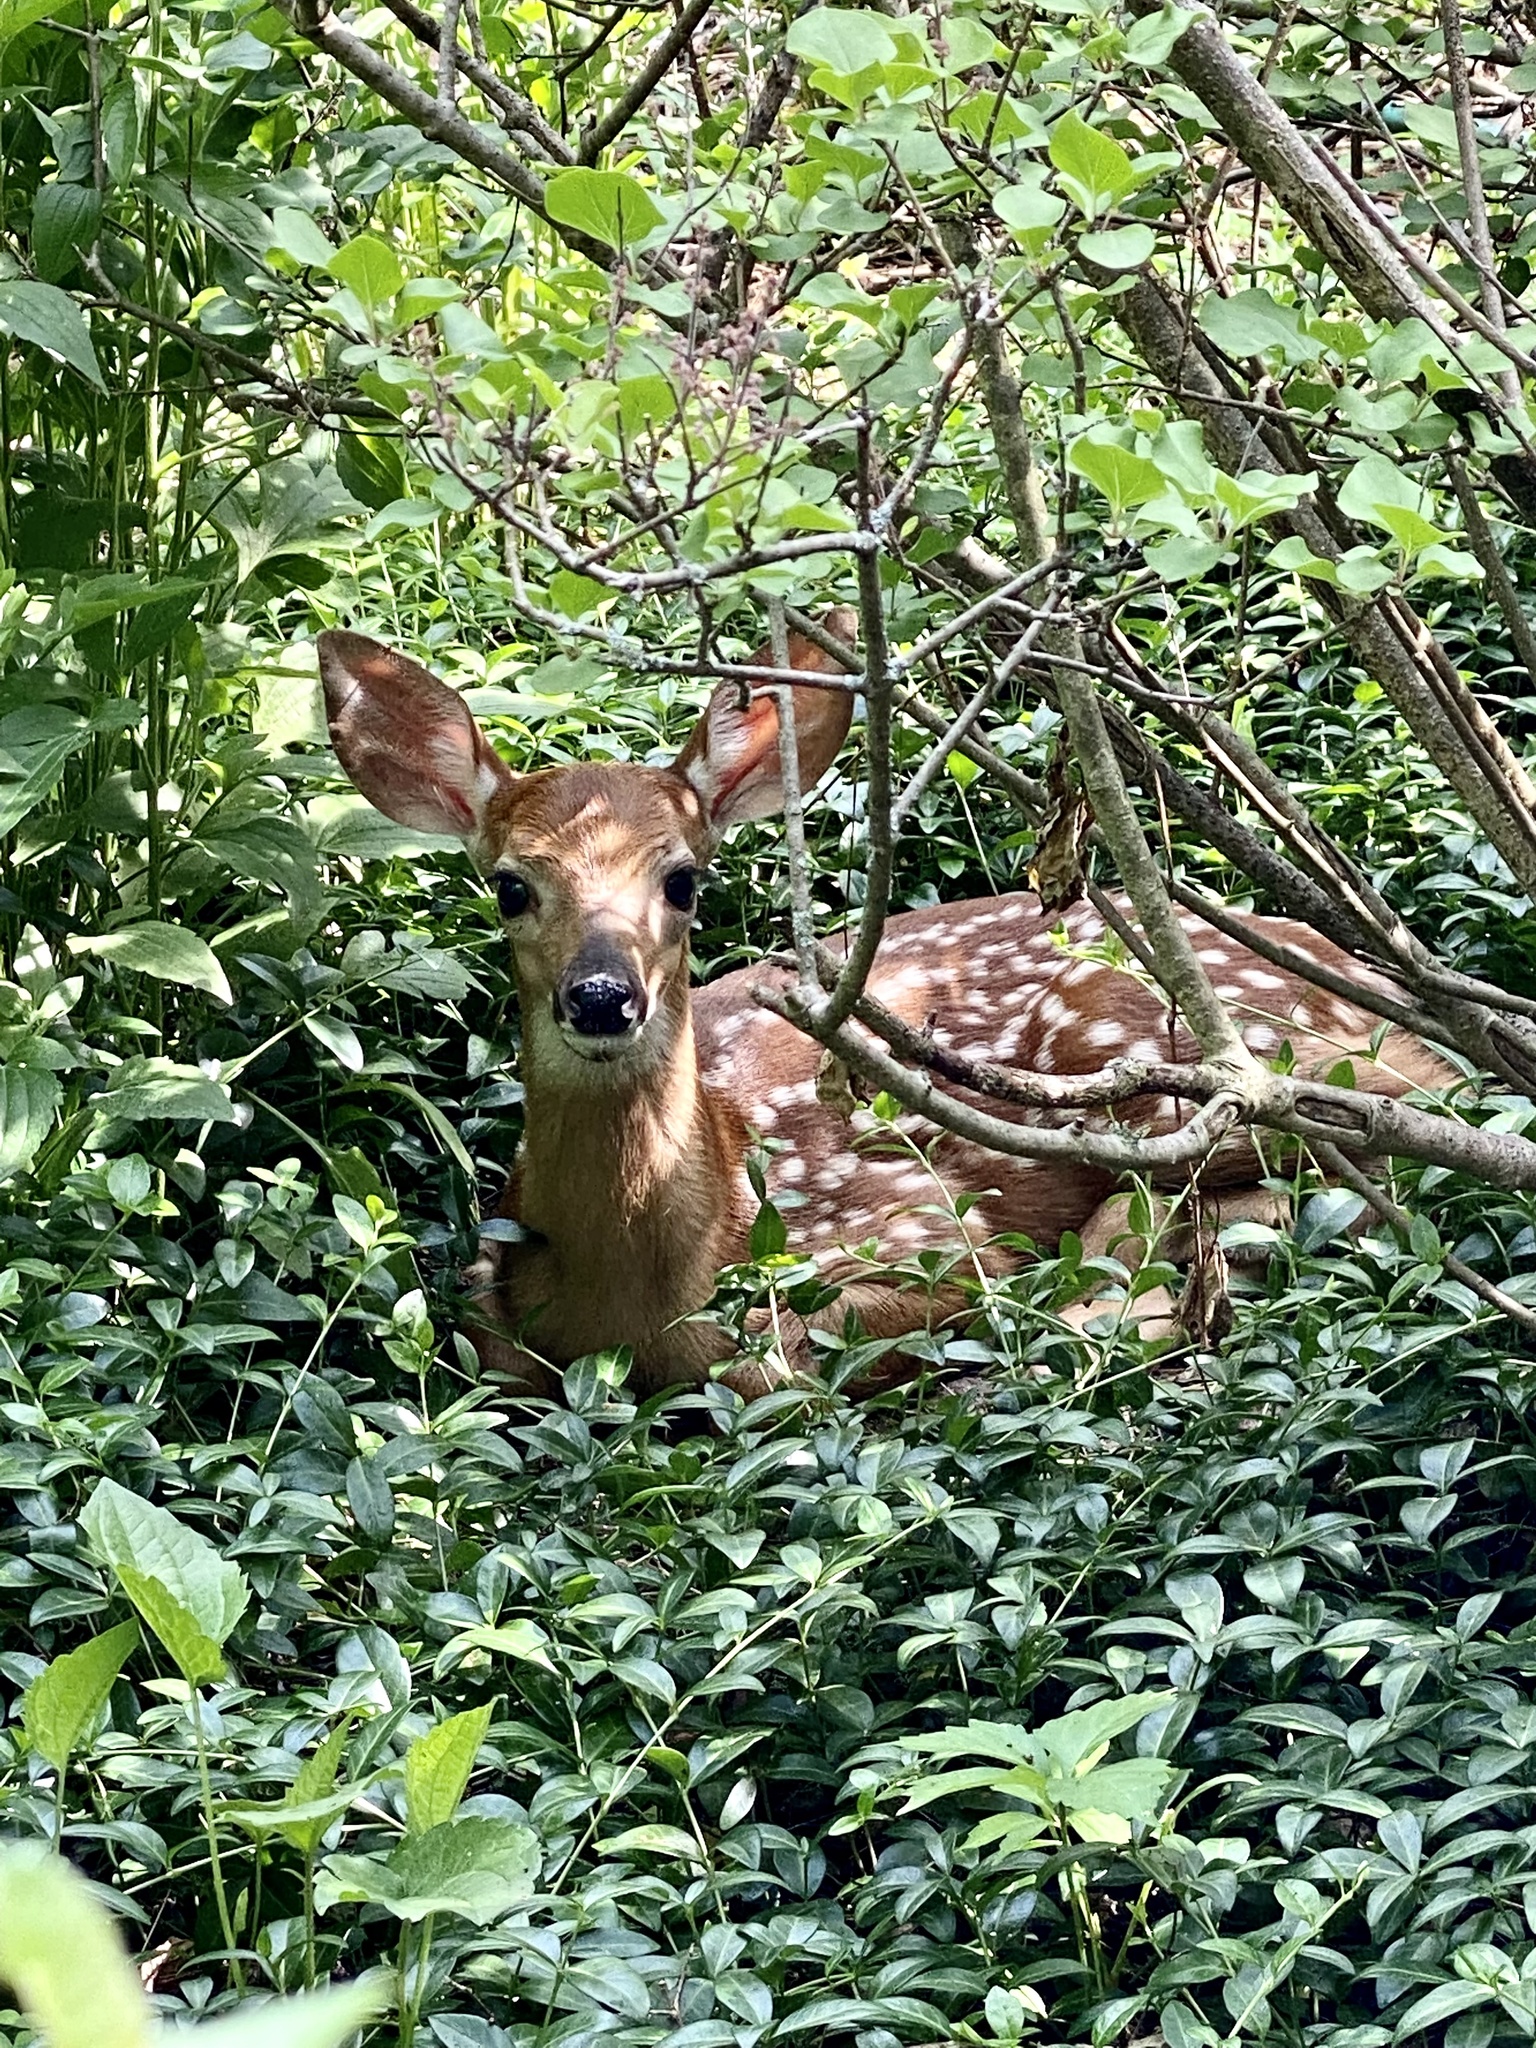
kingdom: Animalia
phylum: Chordata
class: Mammalia
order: Artiodactyla
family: Cervidae
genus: Odocoileus
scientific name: Odocoileus virginianus
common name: White-tailed deer
